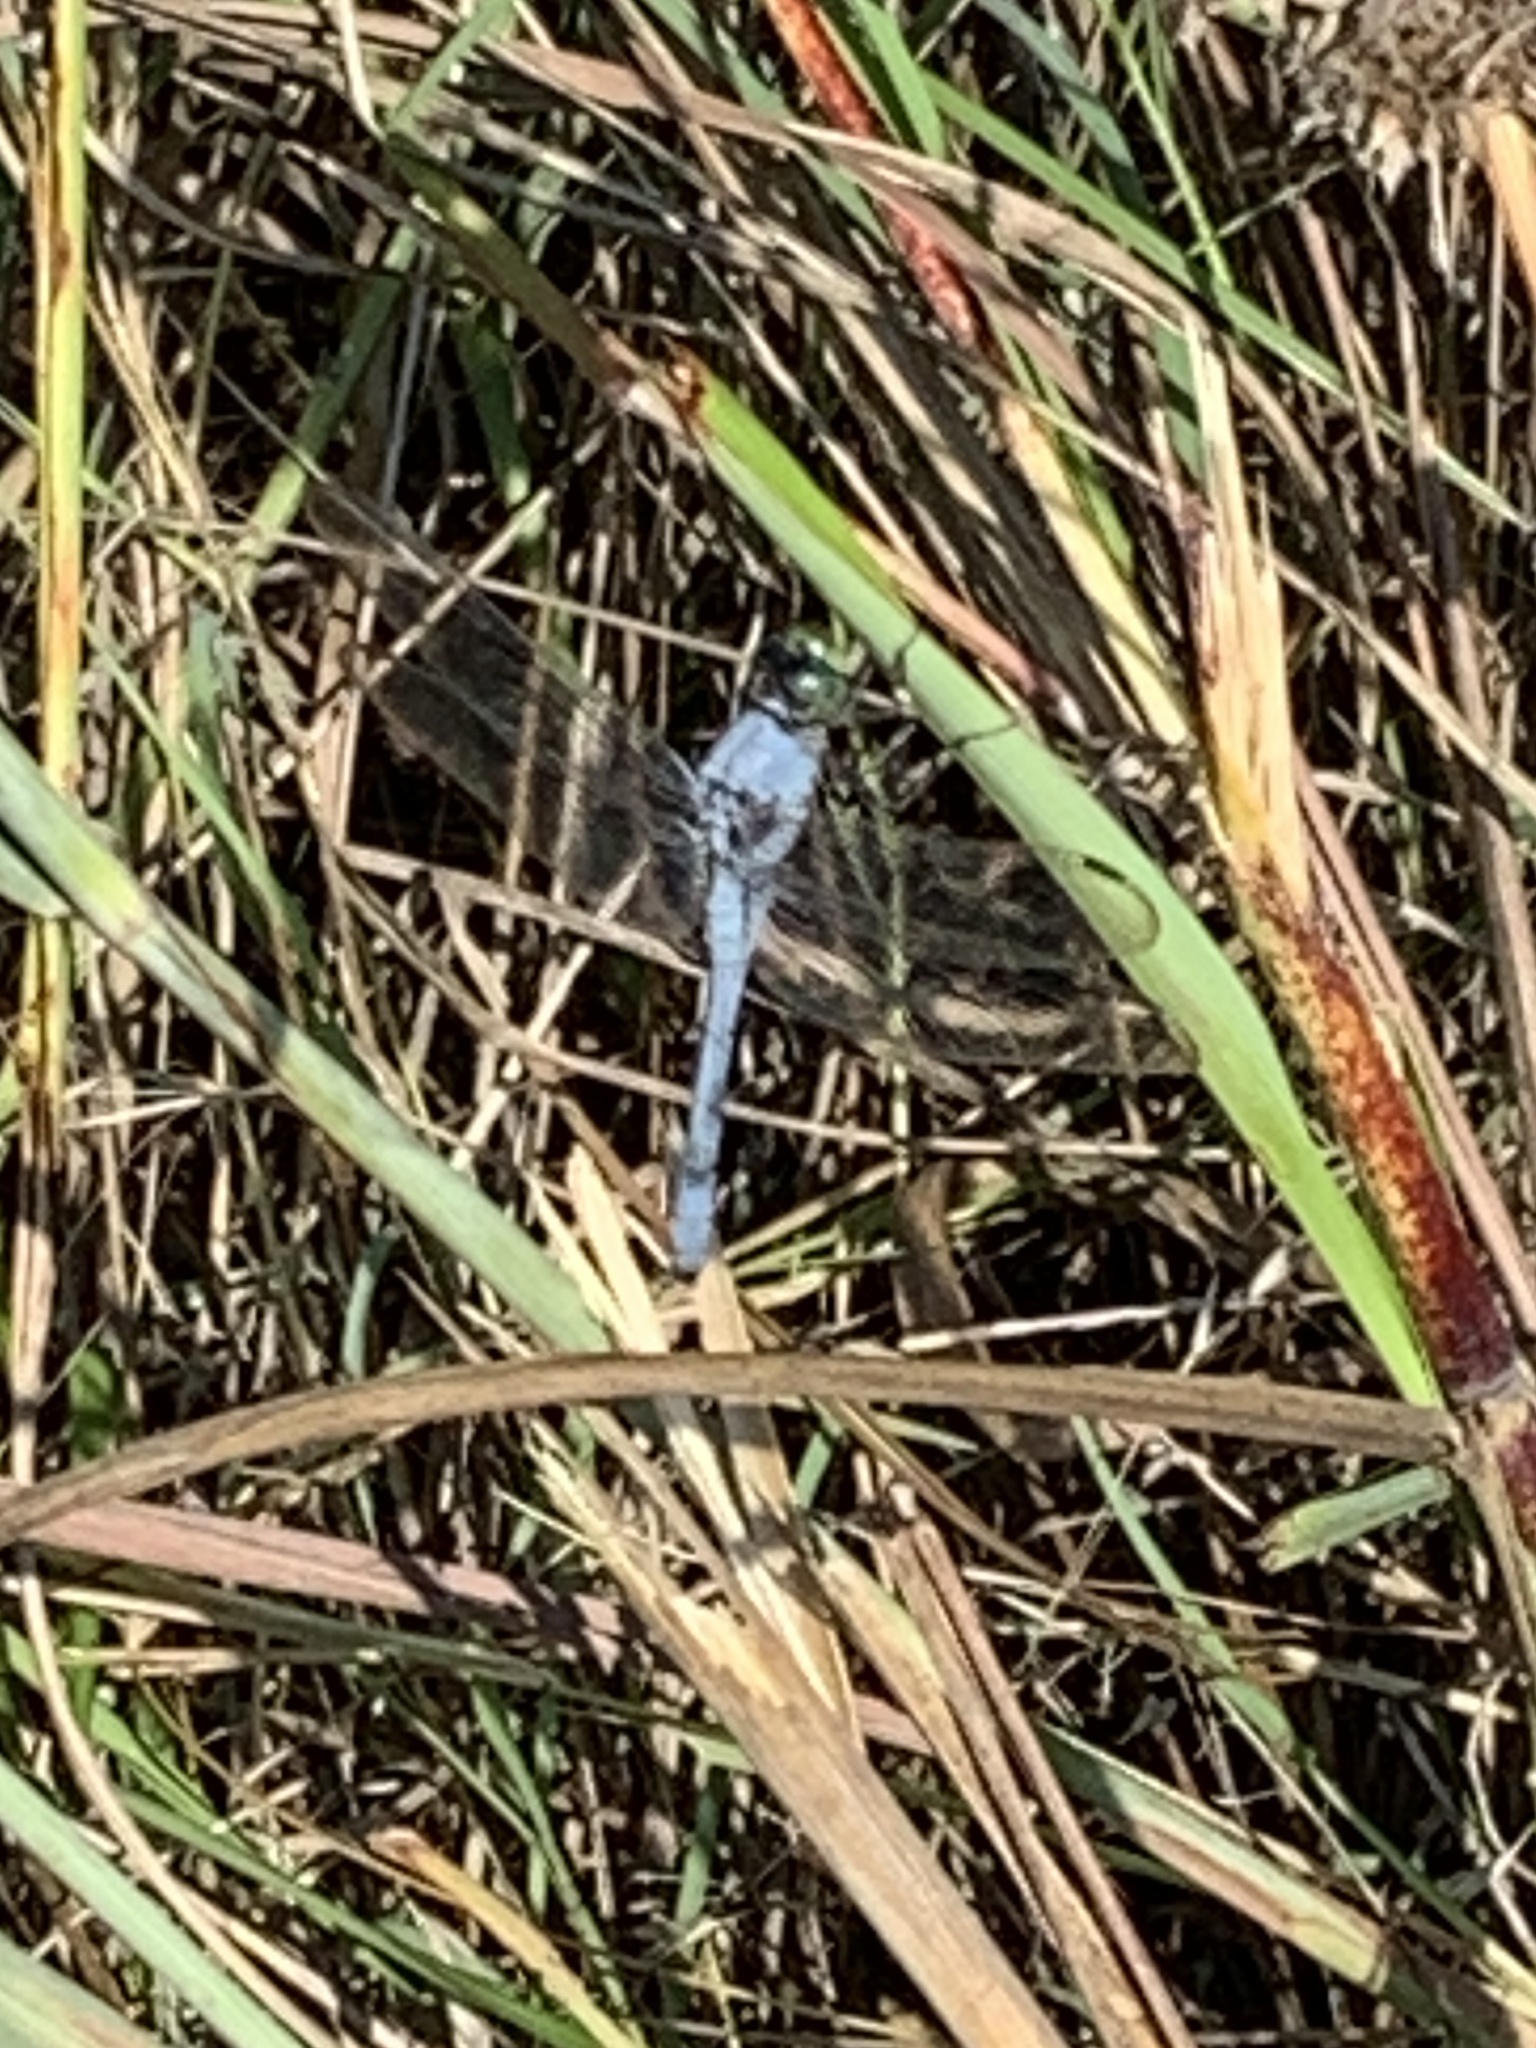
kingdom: Animalia
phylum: Arthropoda
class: Insecta
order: Odonata
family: Libellulidae
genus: Erythemis
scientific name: Erythemis simplicicollis
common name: Eastern pondhawk
